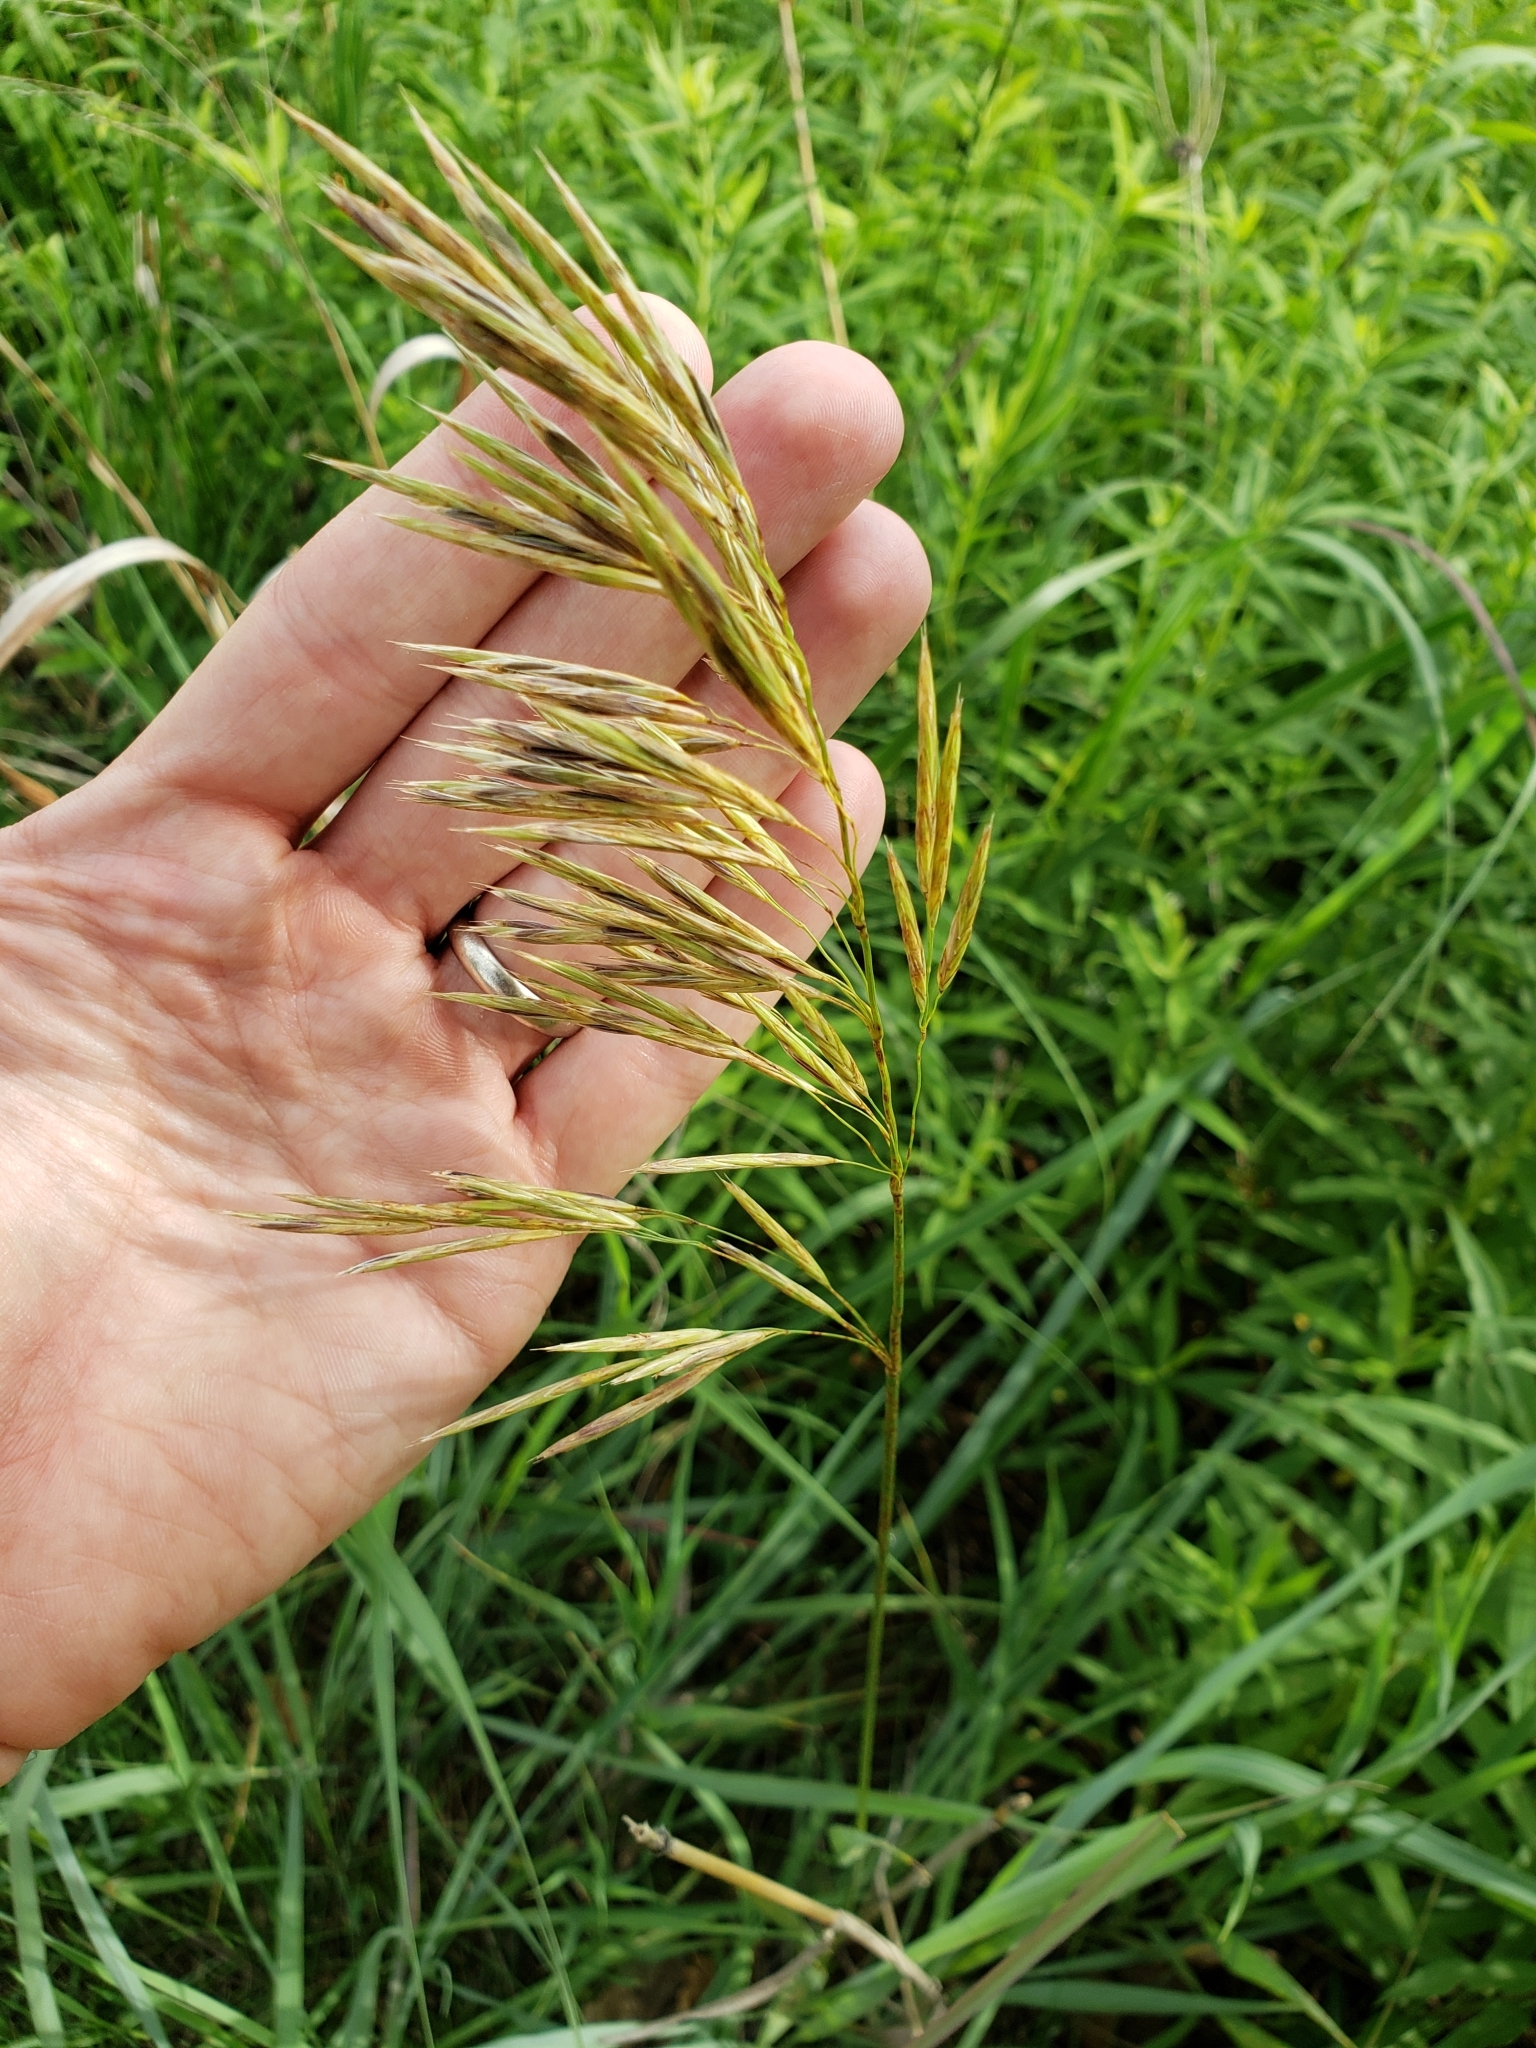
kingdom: Plantae
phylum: Tracheophyta
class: Liliopsida
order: Poales
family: Poaceae
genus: Bromus
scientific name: Bromus inermis
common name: Smooth brome
